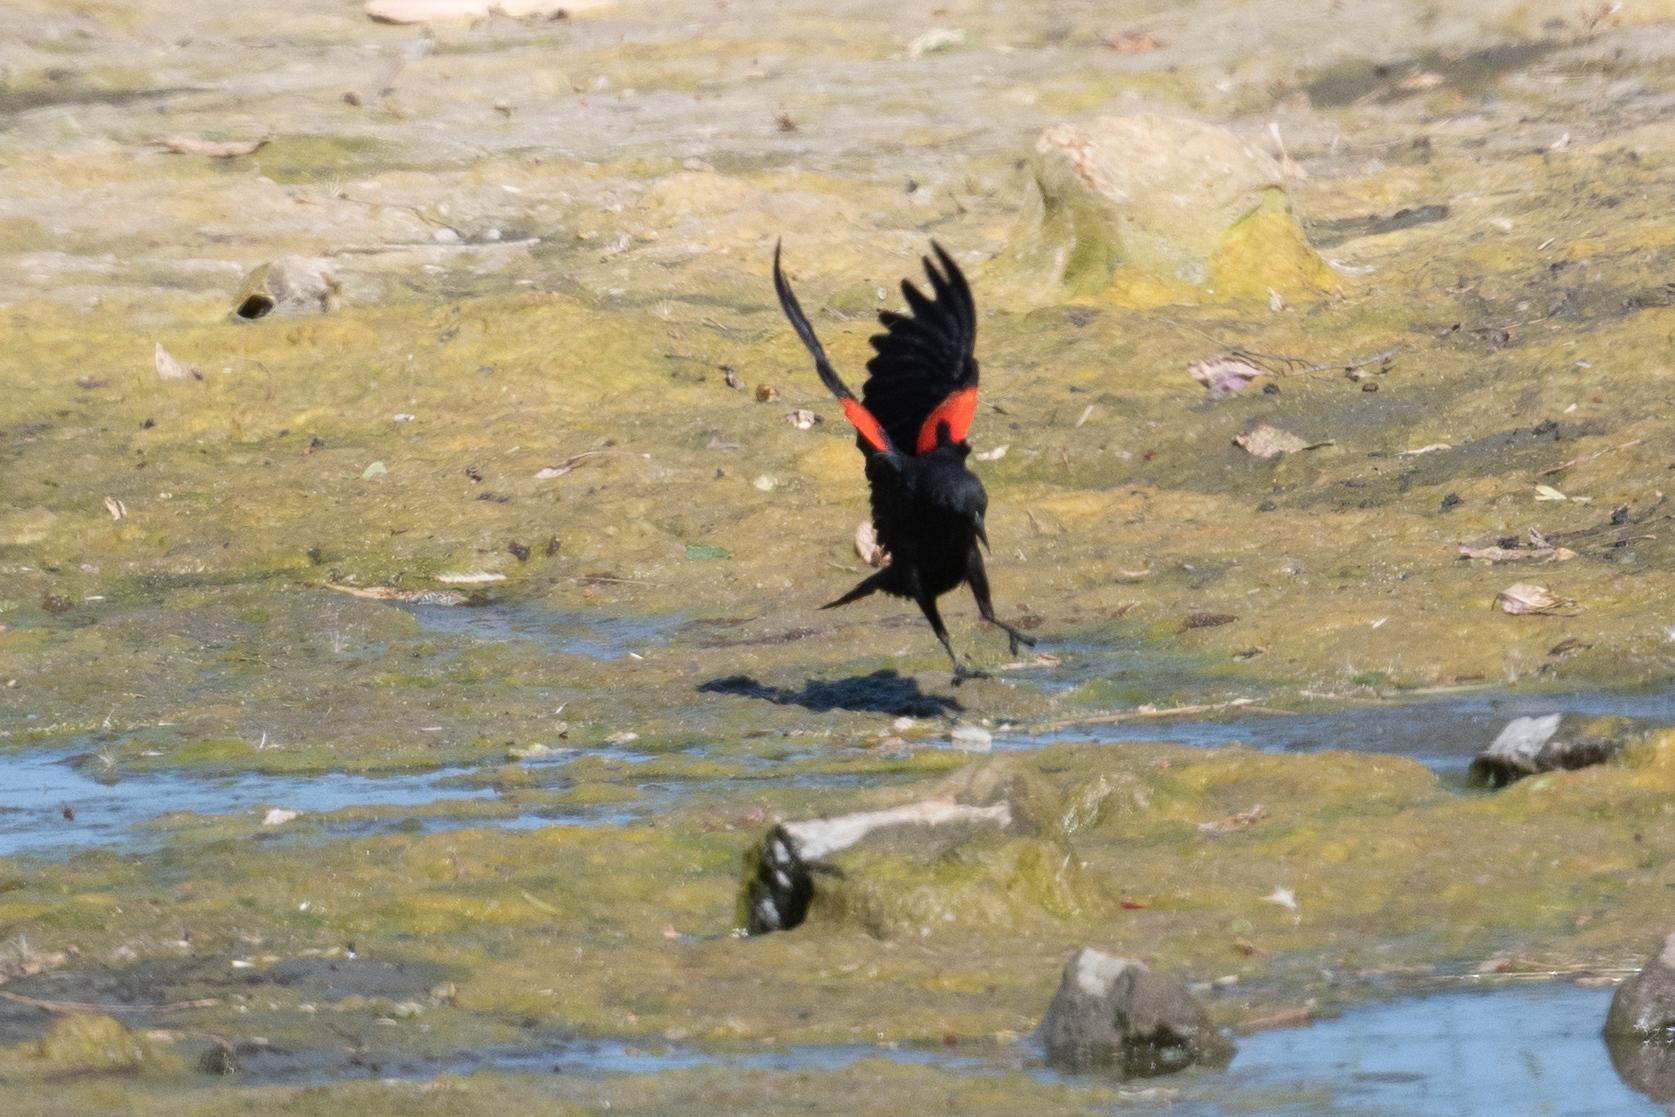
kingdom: Animalia
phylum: Chordata
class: Aves
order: Passeriformes
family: Icteridae
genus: Agelaius
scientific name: Agelaius phoeniceus
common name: Red-winged blackbird
